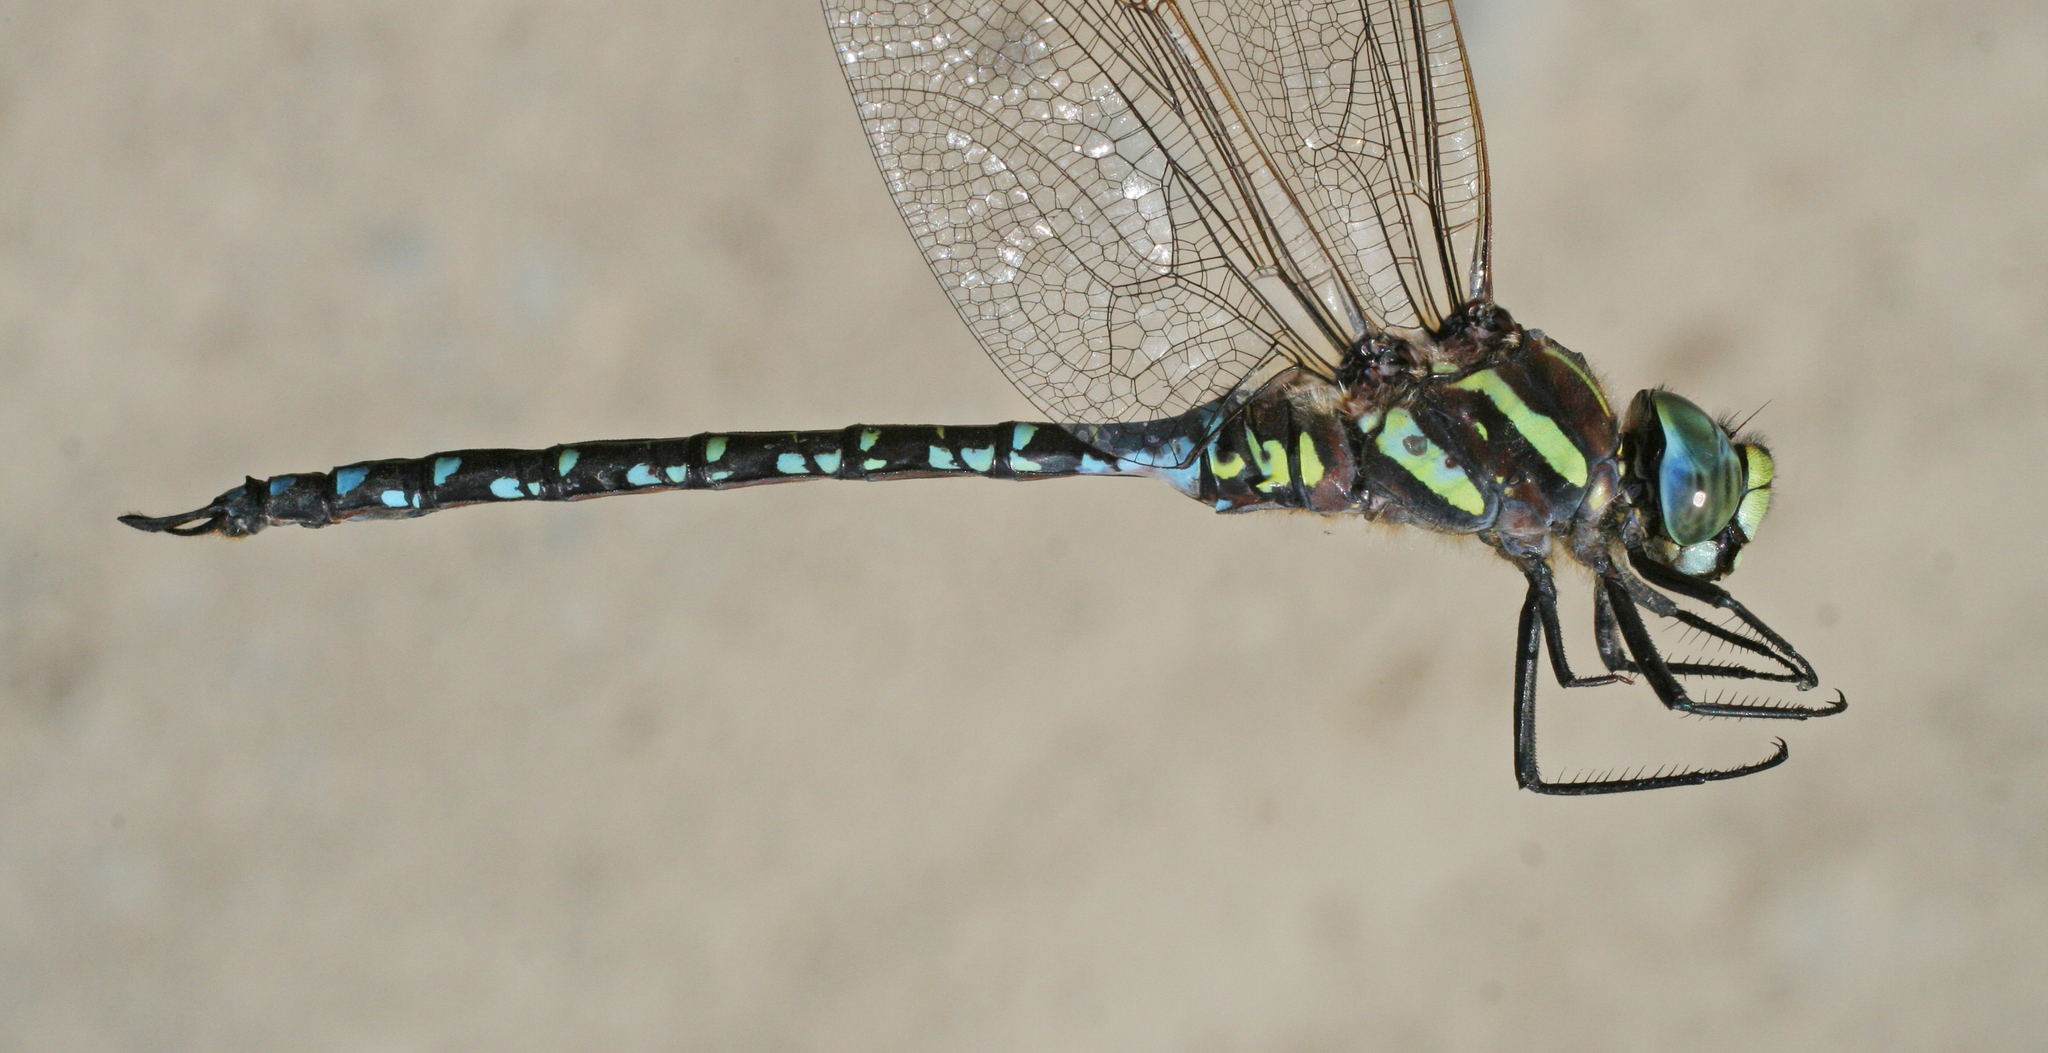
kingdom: Animalia
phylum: Arthropoda
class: Insecta
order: Odonata
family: Aeshnidae
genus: Aeshna
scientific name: Aeshna juncea
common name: Moorland hawker
